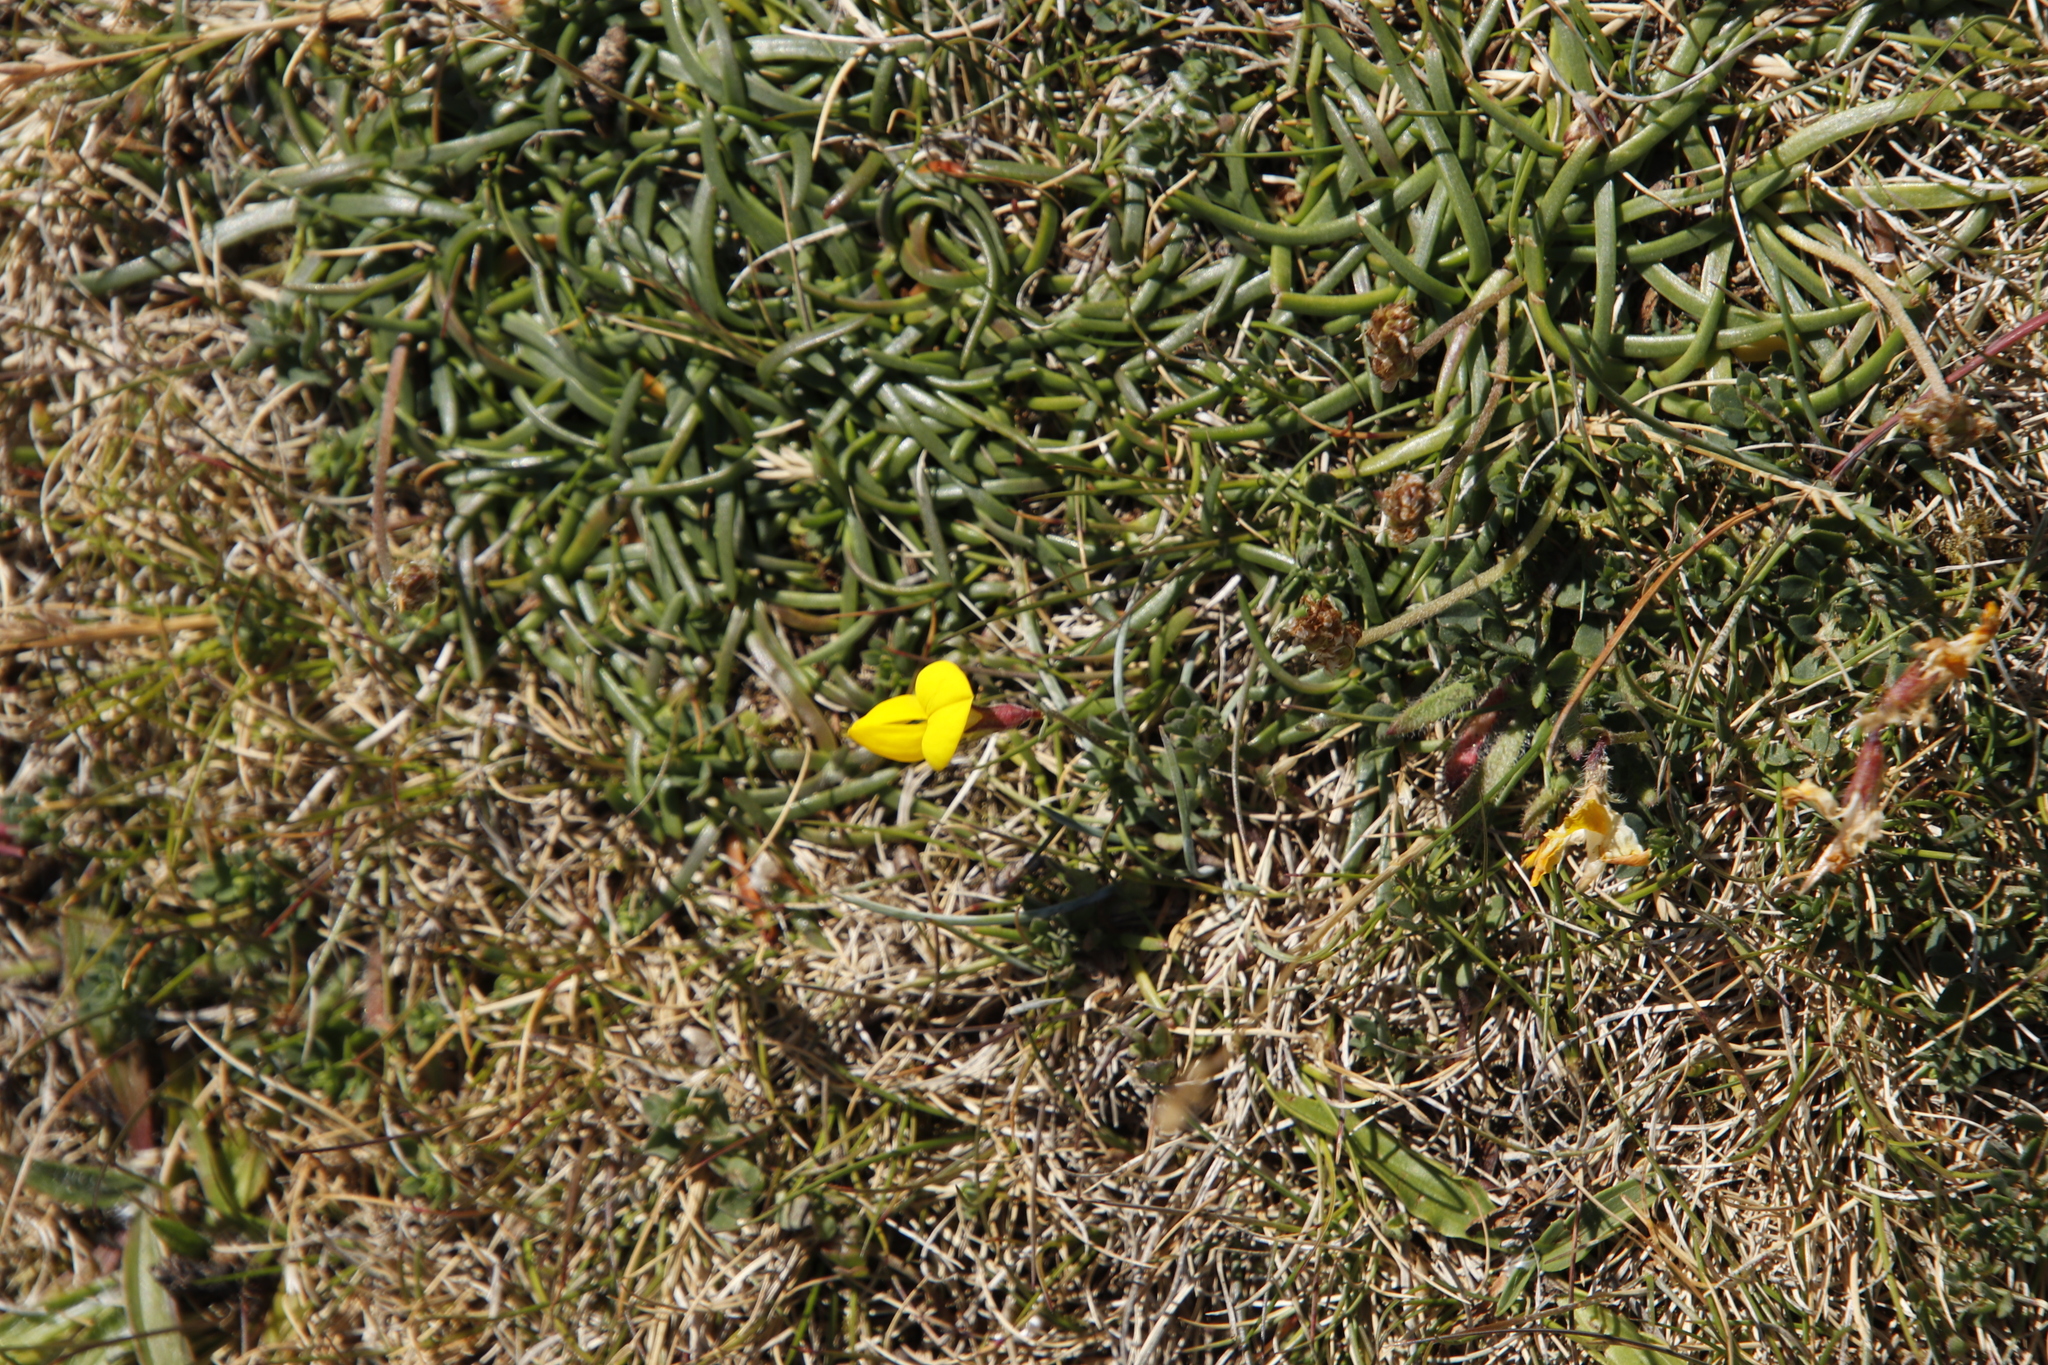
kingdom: Plantae
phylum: Tracheophyta
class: Magnoliopsida
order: Fabales
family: Fabaceae
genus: Lotus
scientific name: Lotus corniculatus
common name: Common bird's-foot-trefoil
